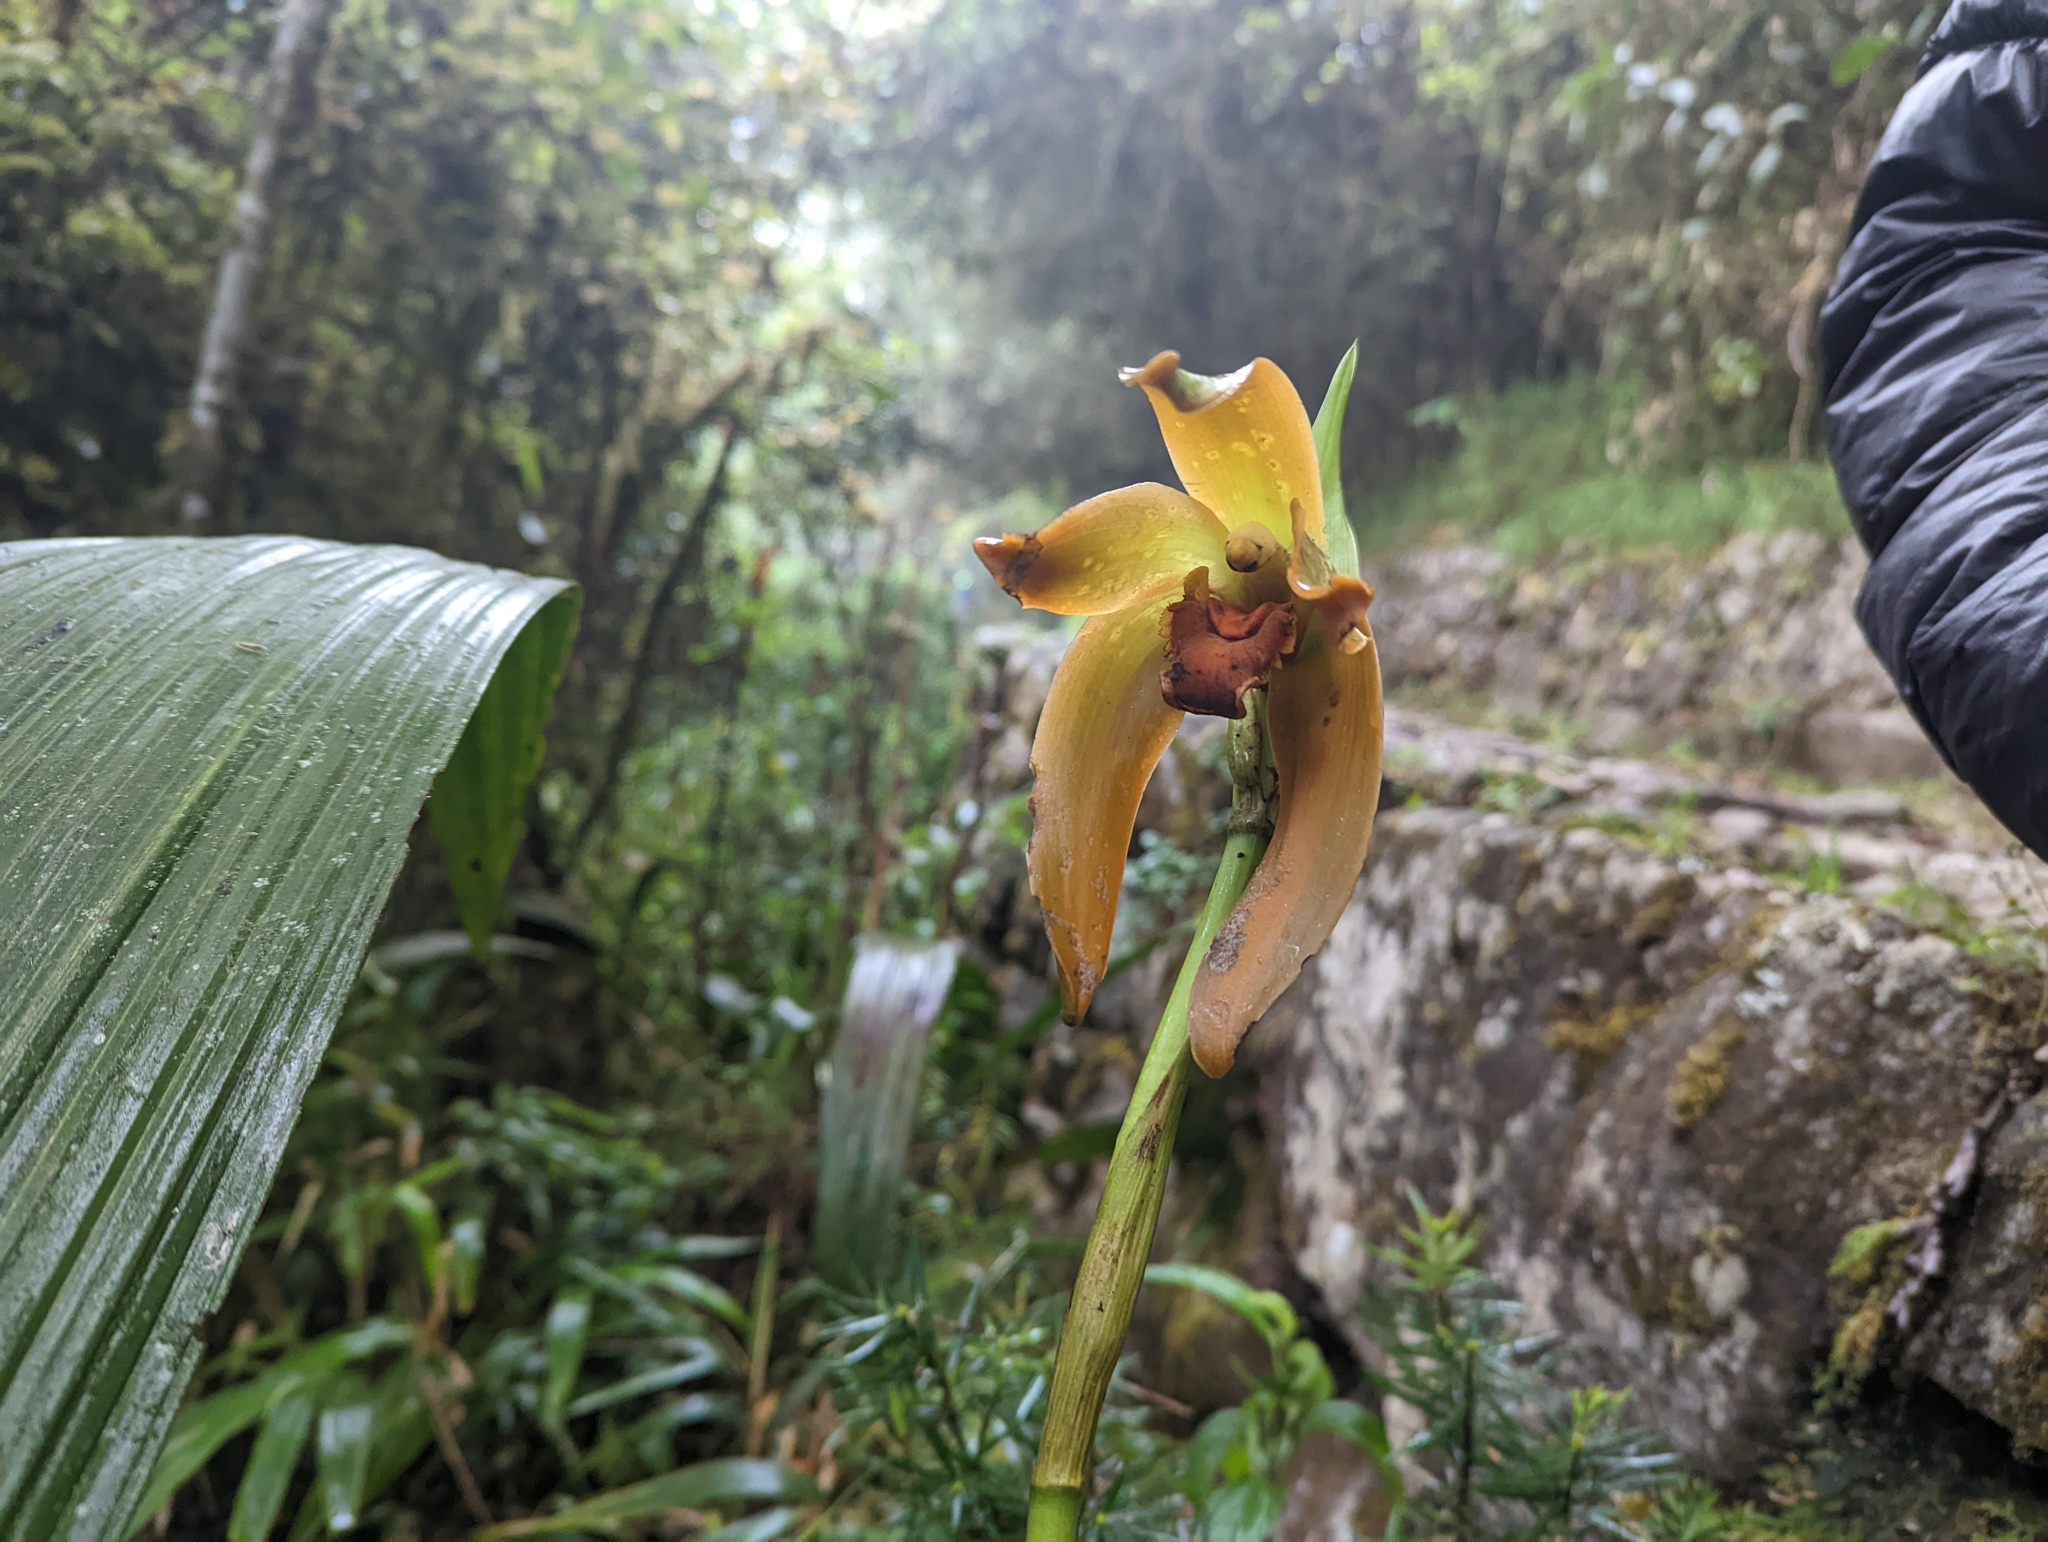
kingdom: Plantae
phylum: Tracheophyta
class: Liliopsida
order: Asparagales
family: Orchidaceae
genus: Ida
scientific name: Ida heynderycxii
